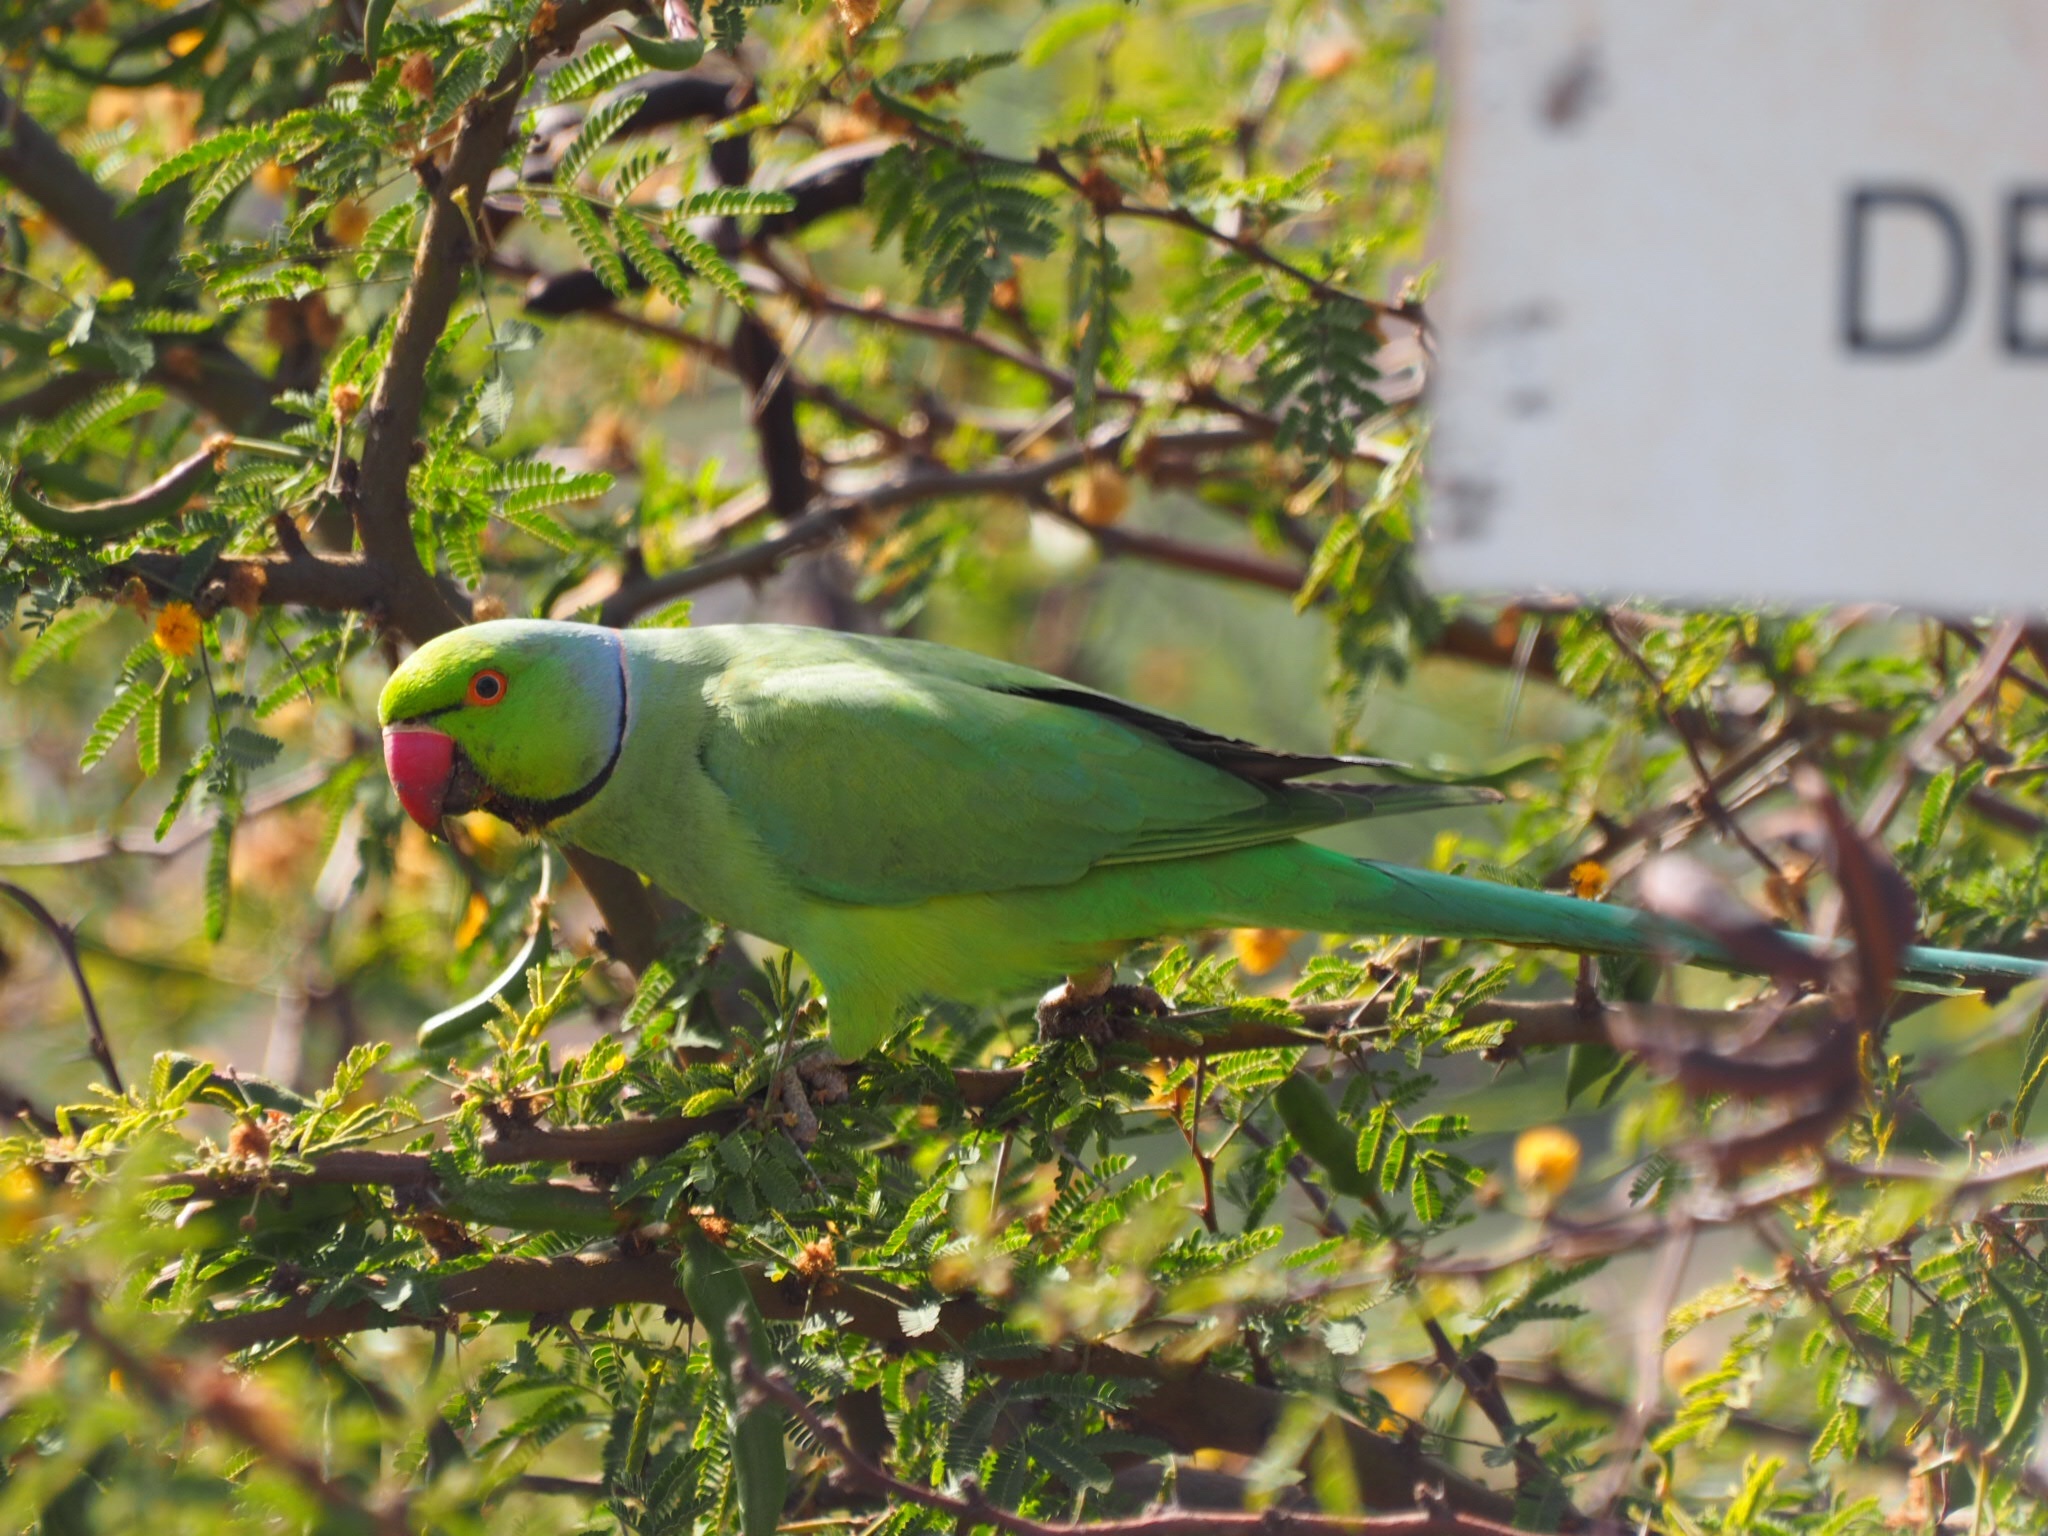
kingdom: Animalia
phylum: Chordata
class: Aves
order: Psittaciformes
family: Psittacidae
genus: Psittacula
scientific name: Psittacula krameri
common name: Rose-ringed parakeet
